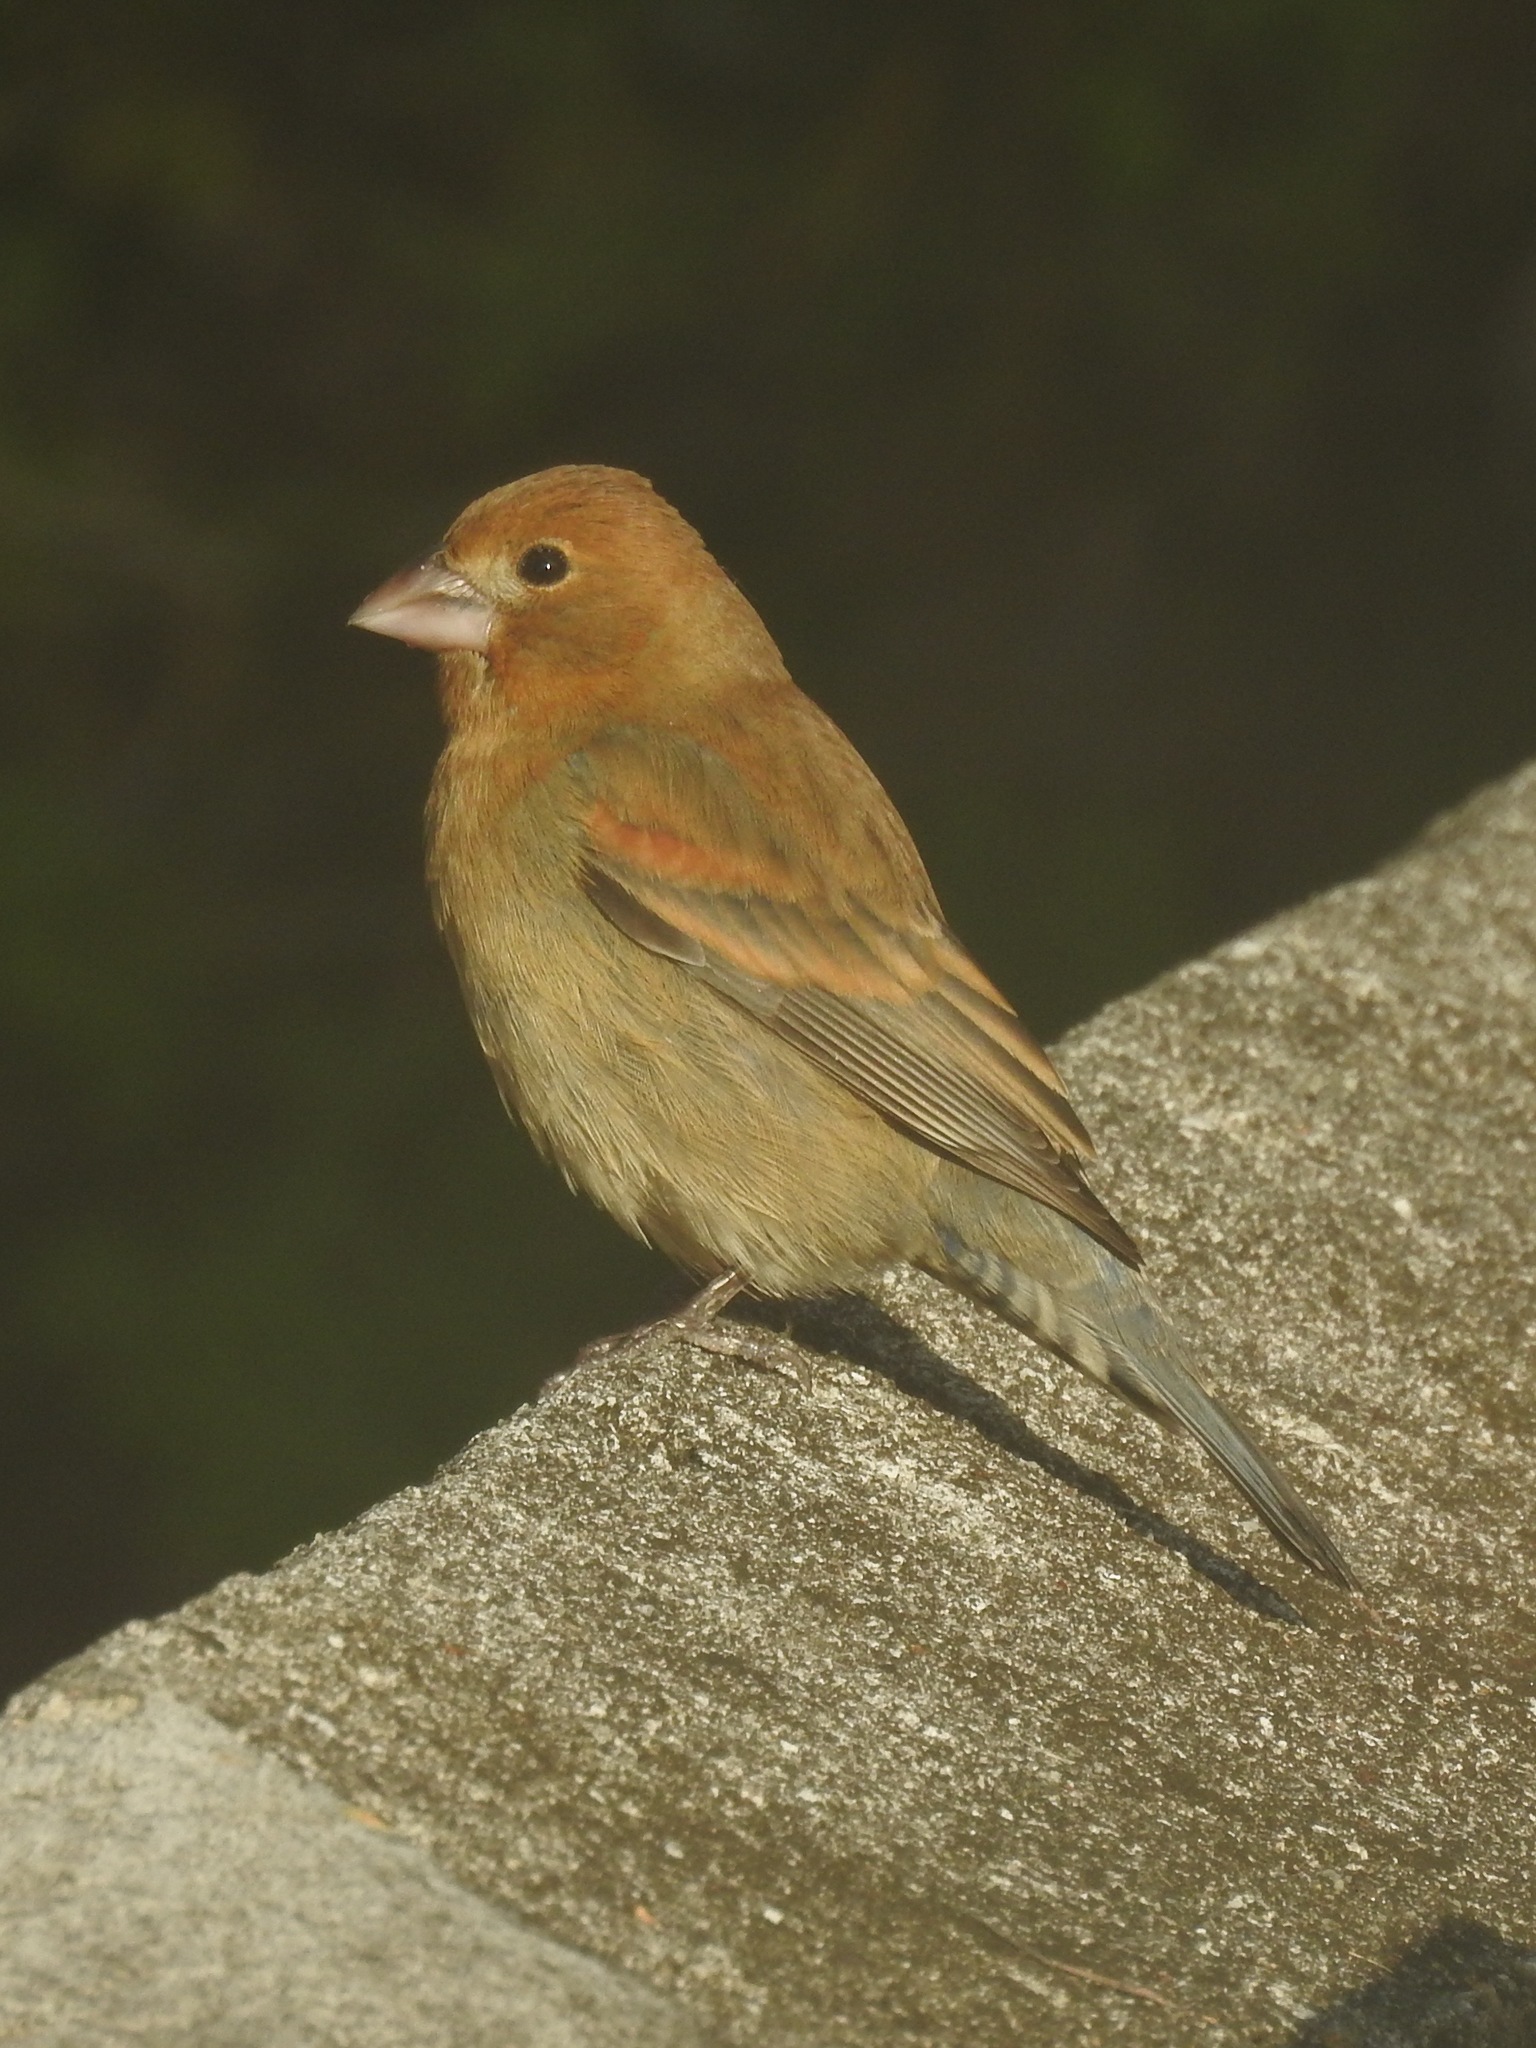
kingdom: Animalia
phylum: Chordata
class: Aves
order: Passeriformes
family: Cardinalidae
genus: Passerina
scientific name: Passerina caerulea
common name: Blue grosbeak
